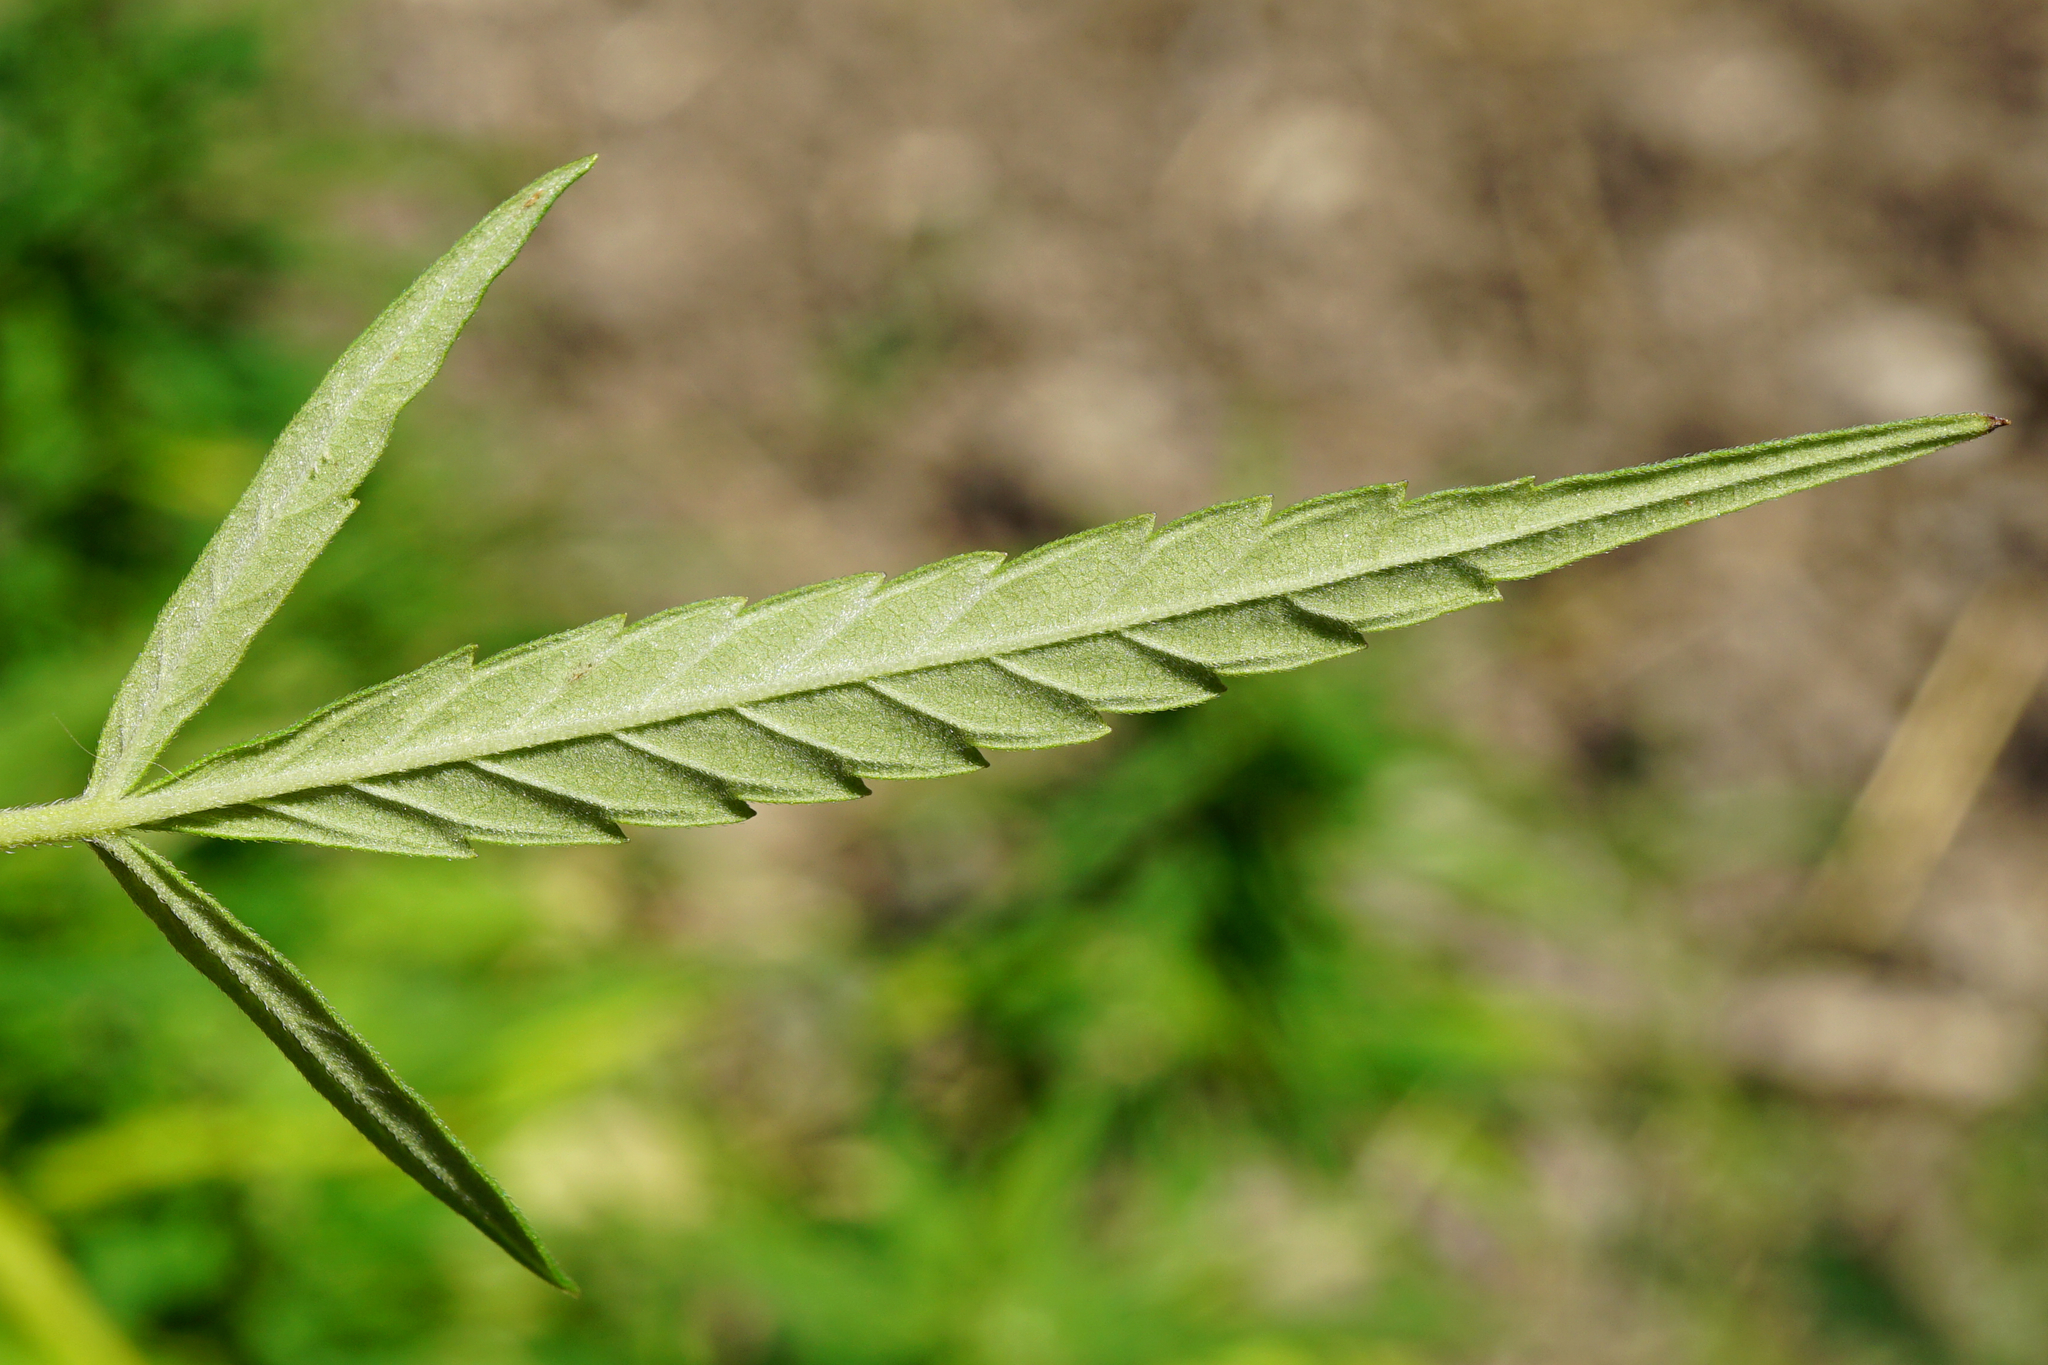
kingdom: Plantae
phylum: Tracheophyta
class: Magnoliopsida
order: Rosales
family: Cannabaceae
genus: Cannabis
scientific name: Cannabis sativa
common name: Hemp
